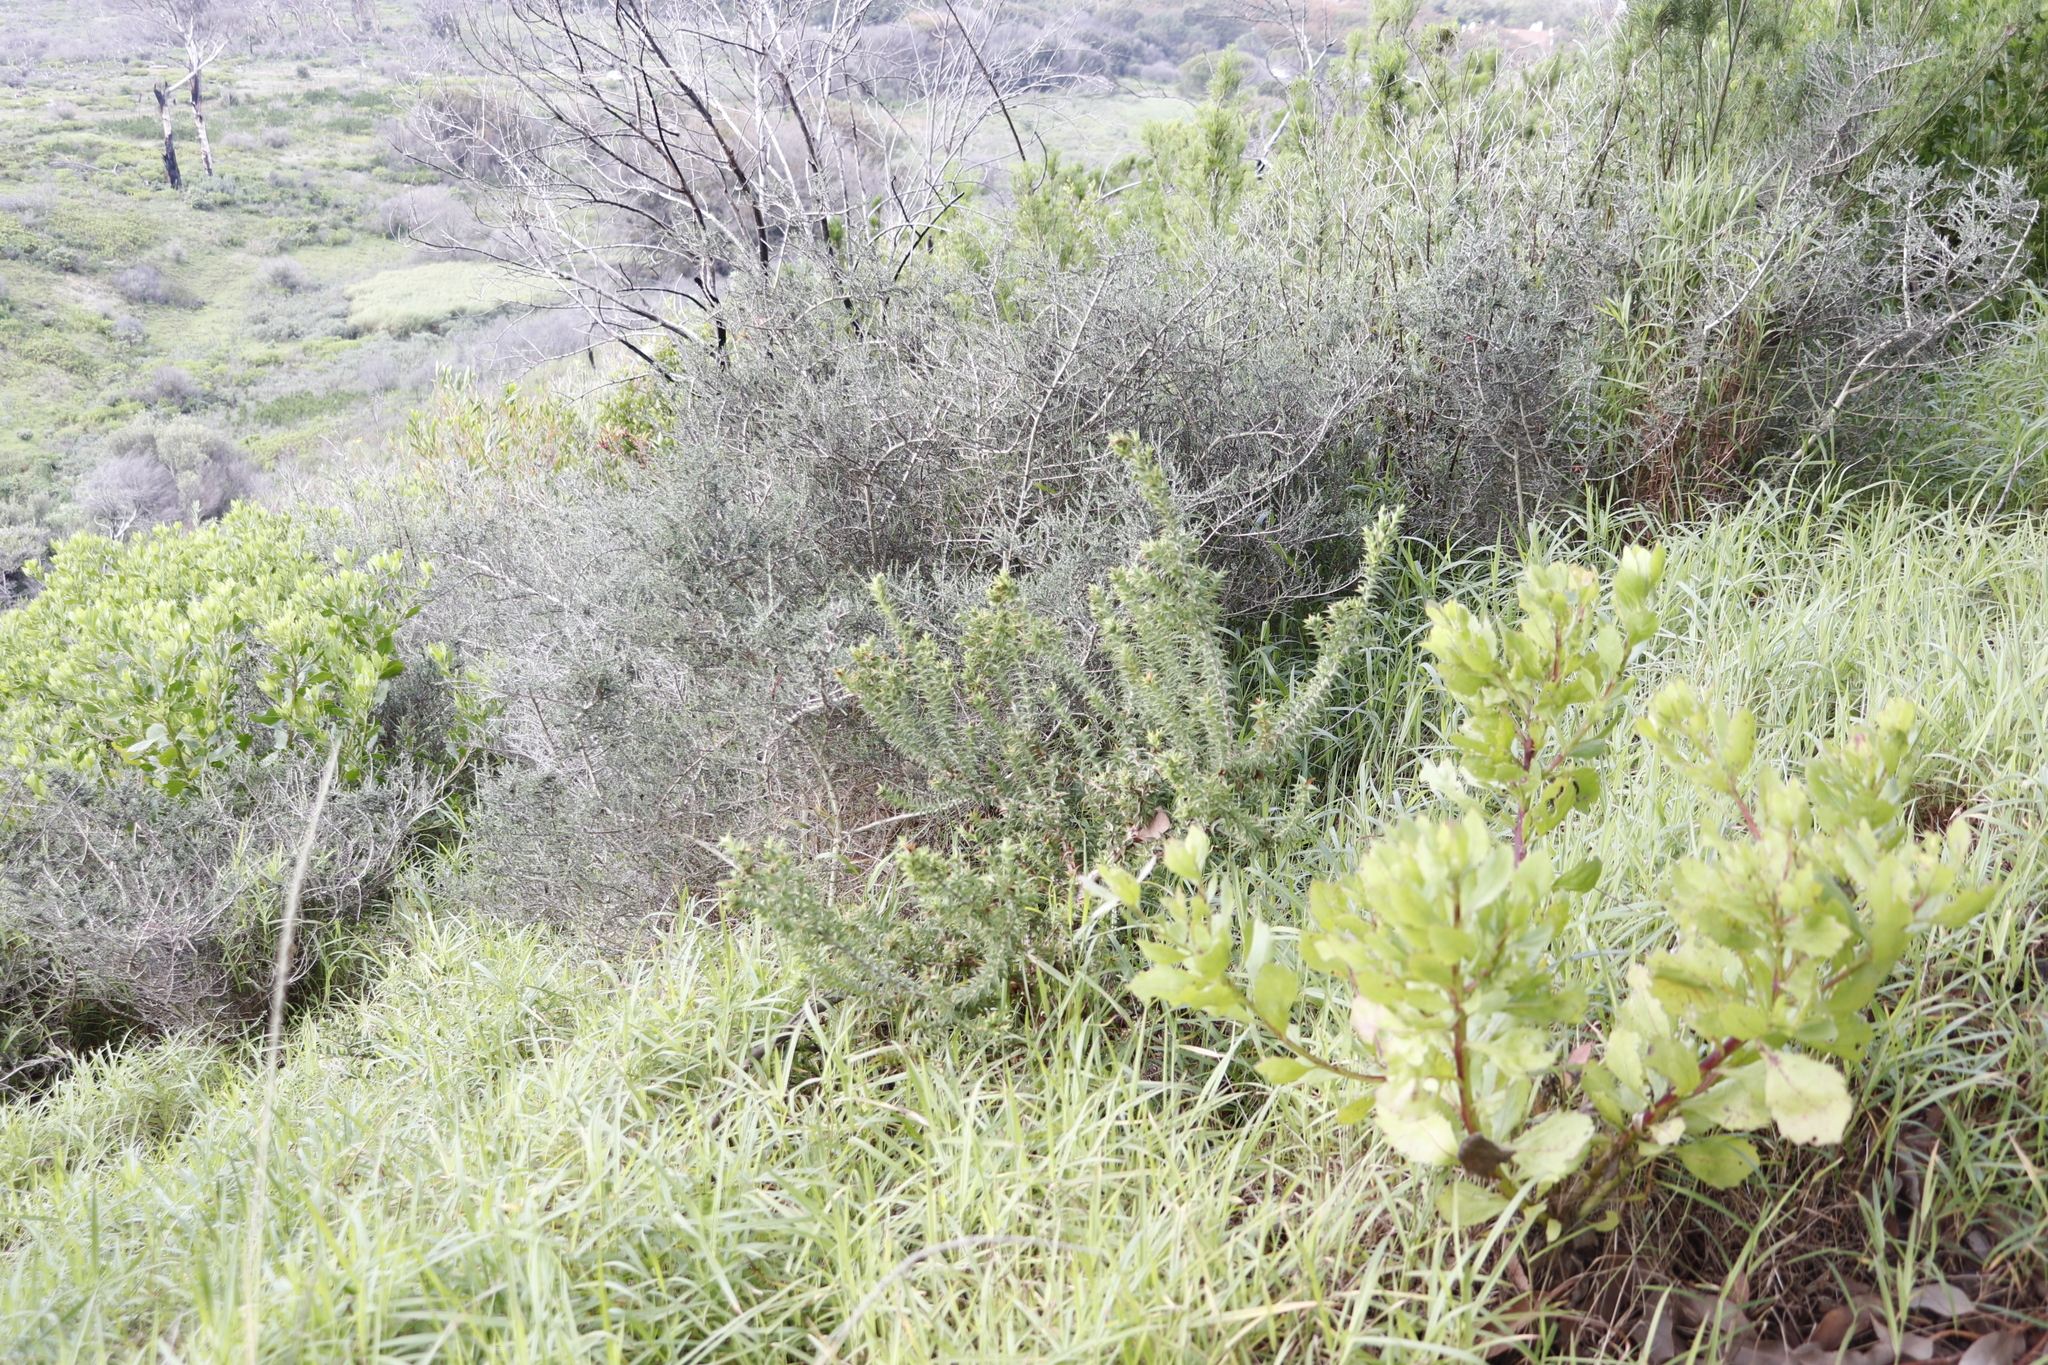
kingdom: Plantae
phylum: Tracheophyta
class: Magnoliopsida
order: Fabales
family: Fabaceae
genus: Aspalathus
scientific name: Aspalathus cordata
